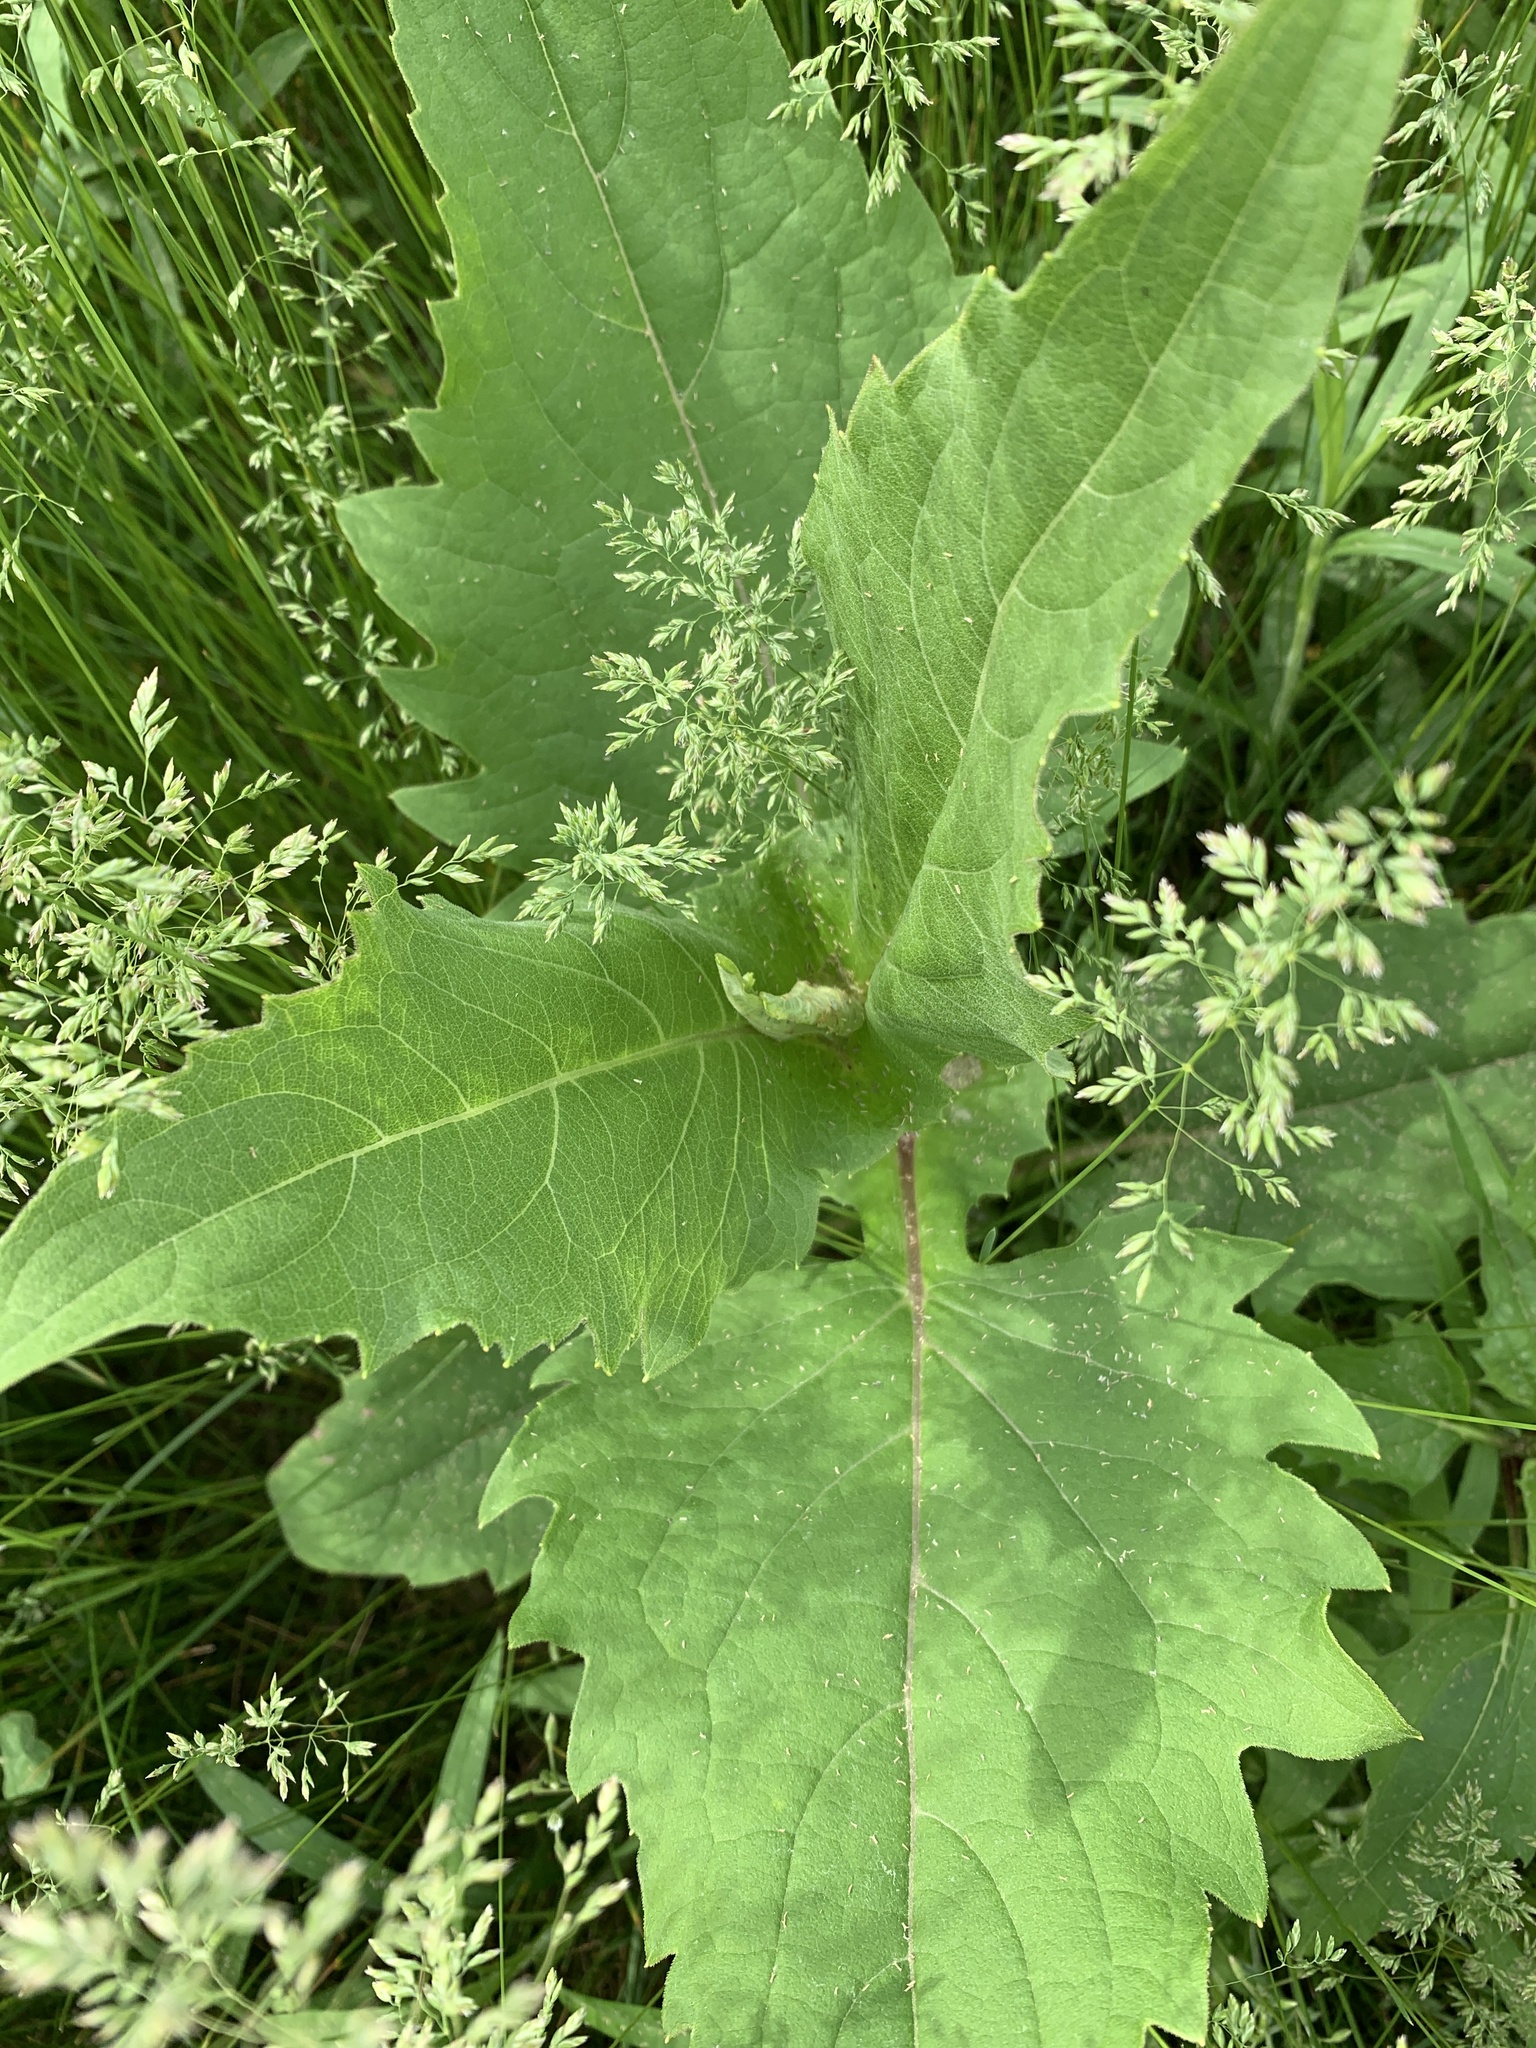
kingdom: Plantae
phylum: Tracheophyta
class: Magnoliopsida
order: Asterales
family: Asteraceae
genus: Silphium
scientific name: Silphium perfoliatum
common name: Cup-plant
